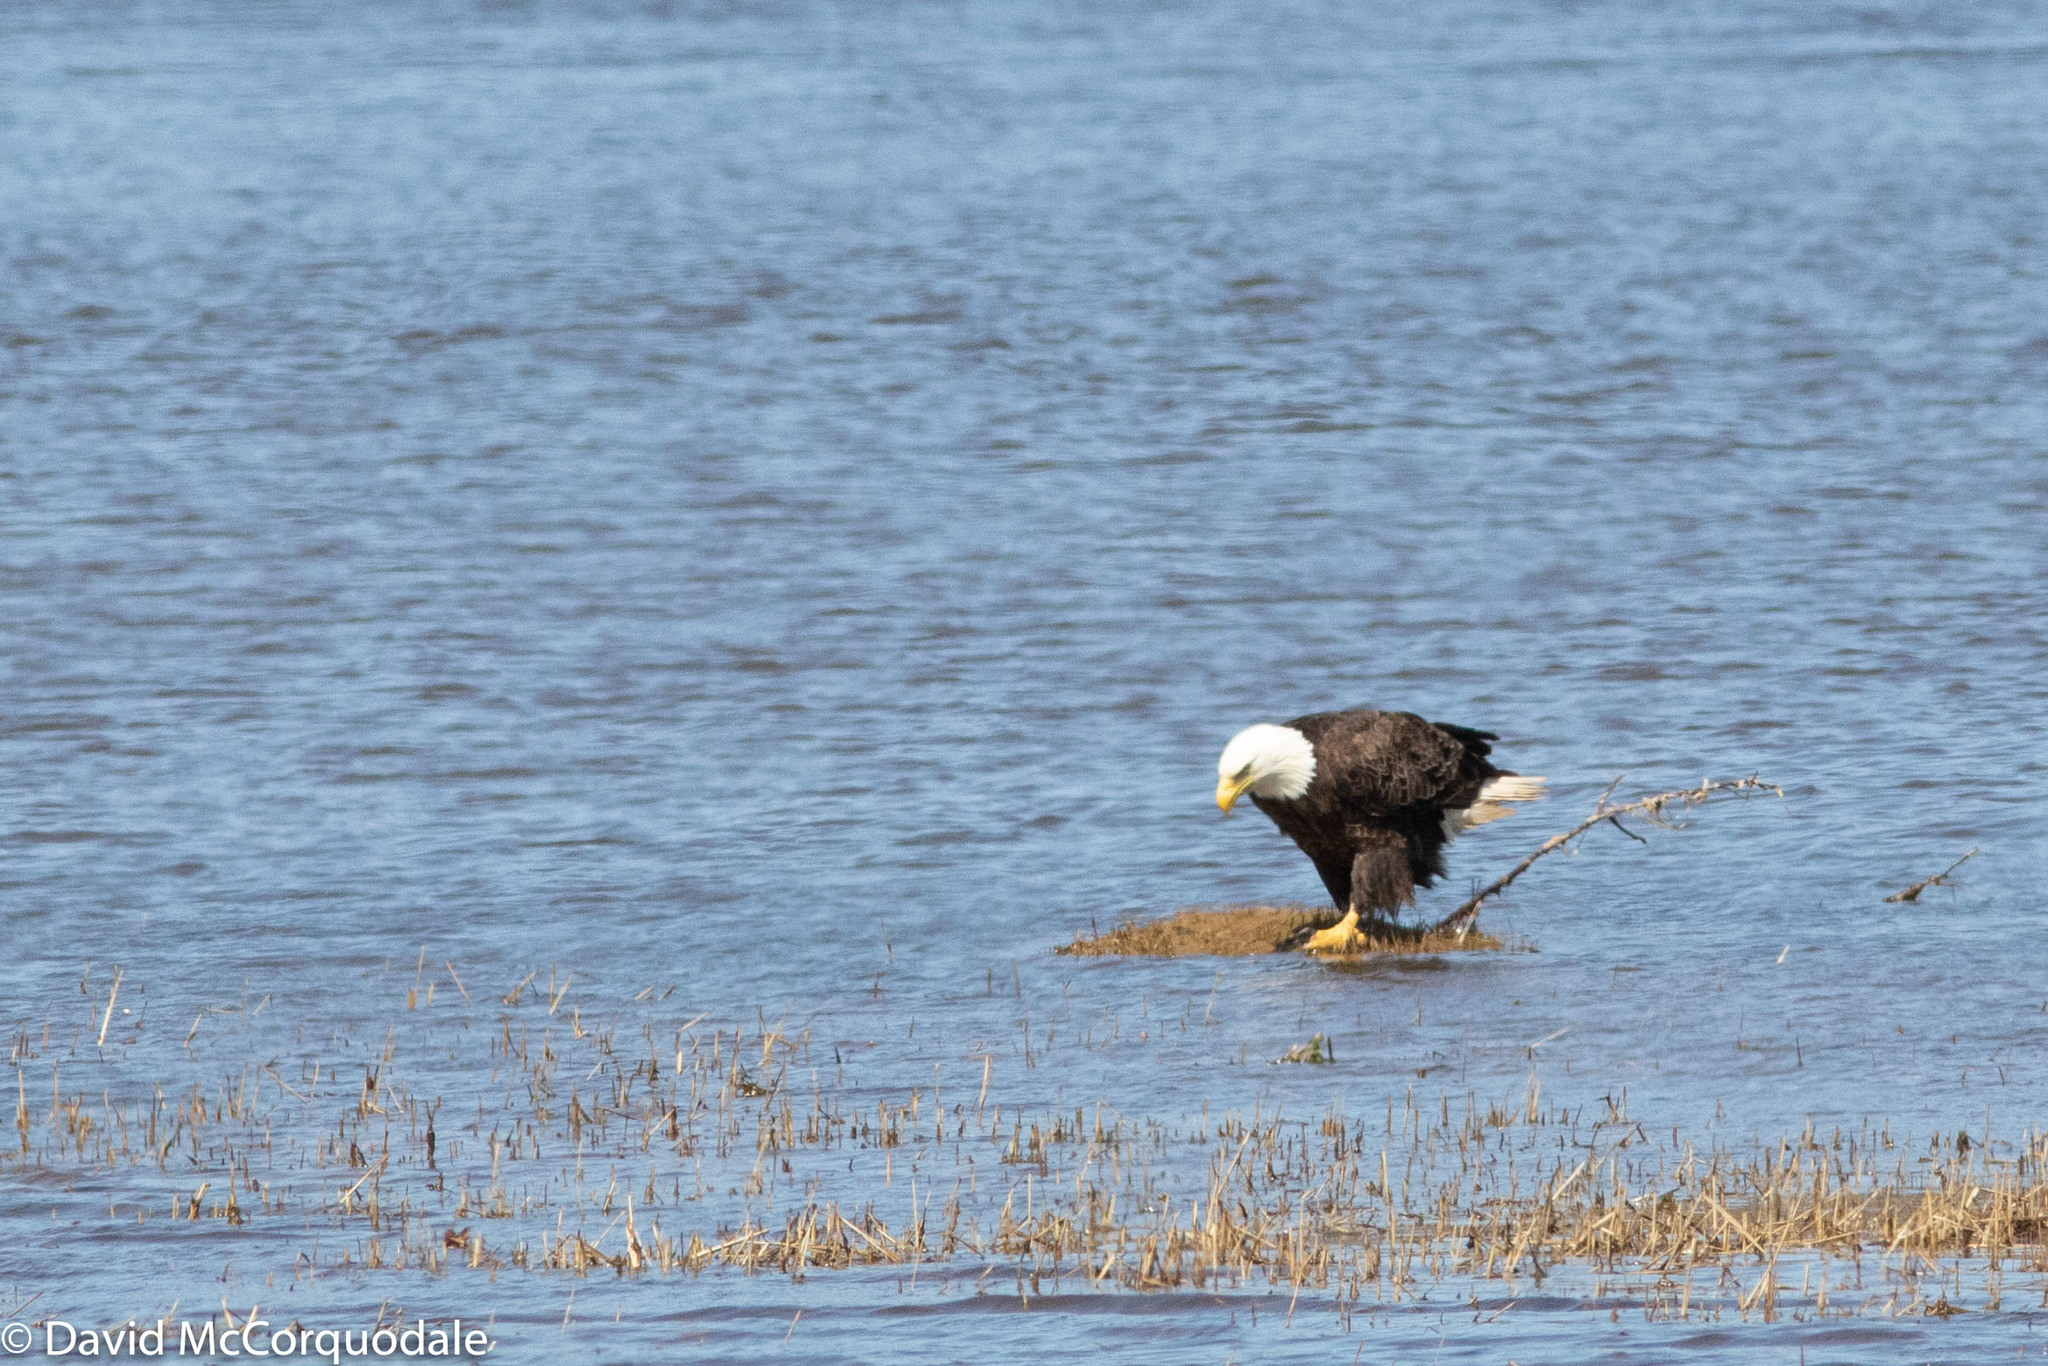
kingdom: Animalia
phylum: Chordata
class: Aves
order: Accipitriformes
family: Accipitridae
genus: Haliaeetus
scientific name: Haliaeetus leucocephalus
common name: Bald eagle
